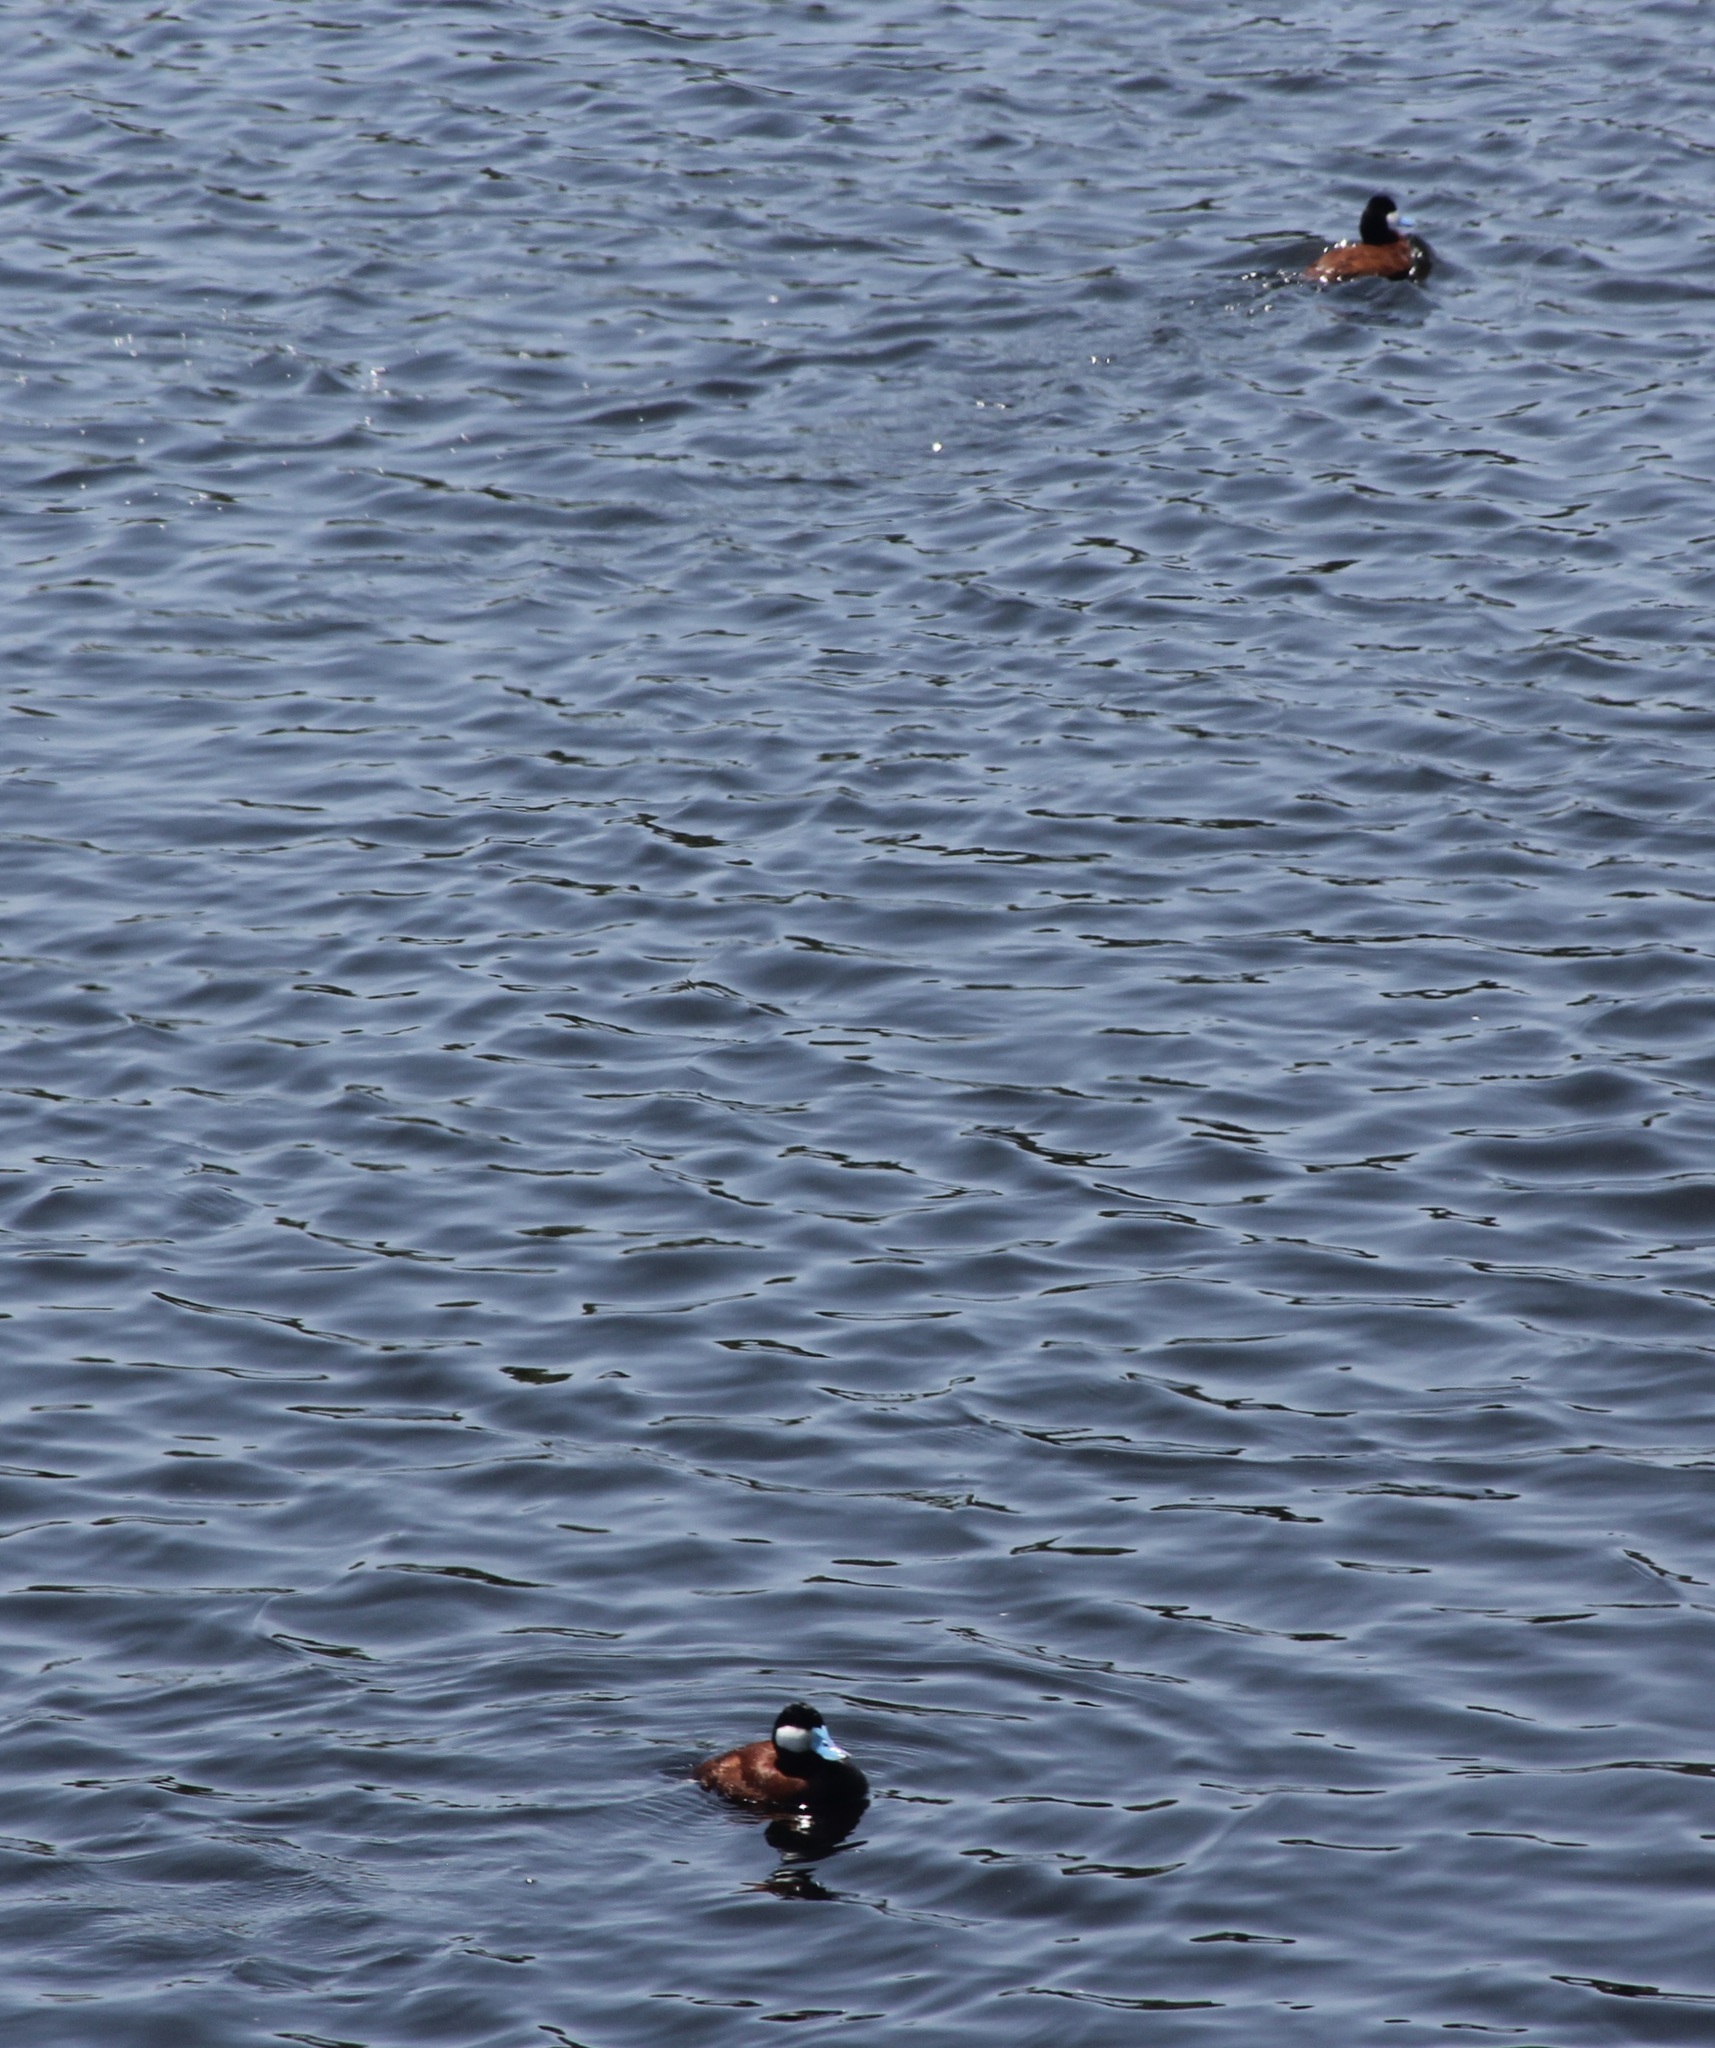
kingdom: Animalia
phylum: Chordata
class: Aves
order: Anseriformes
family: Anatidae
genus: Oxyura
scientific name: Oxyura jamaicensis
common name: Ruddy duck
